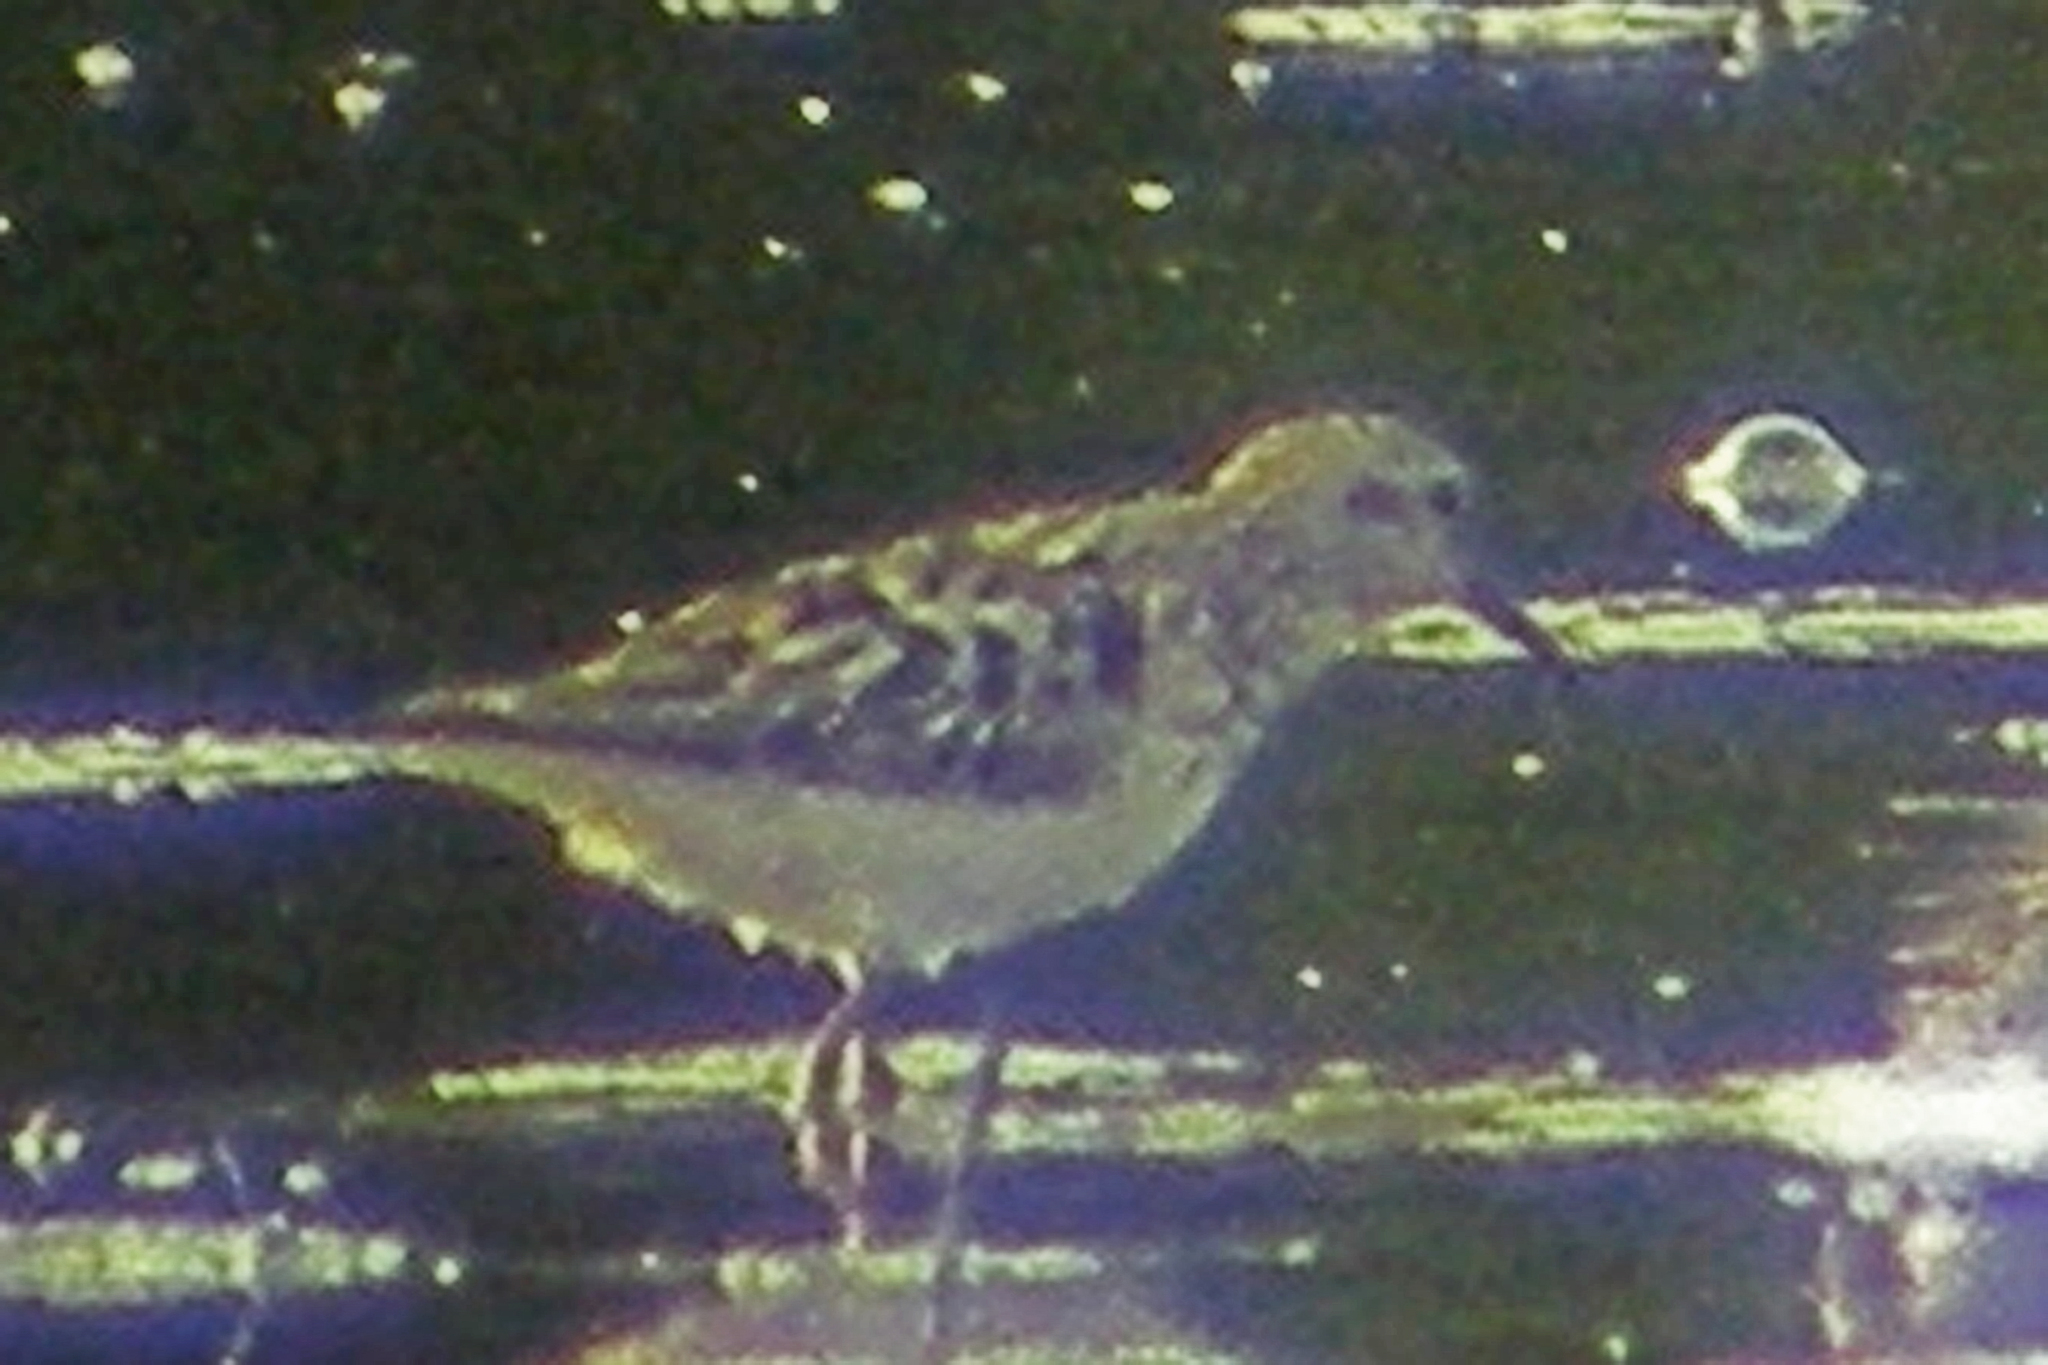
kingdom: Animalia
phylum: Chordata
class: Aves
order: Charadriiformes
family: Scolopacidae
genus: Calidris
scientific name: Calidris minutilla
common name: Least sandpiper
